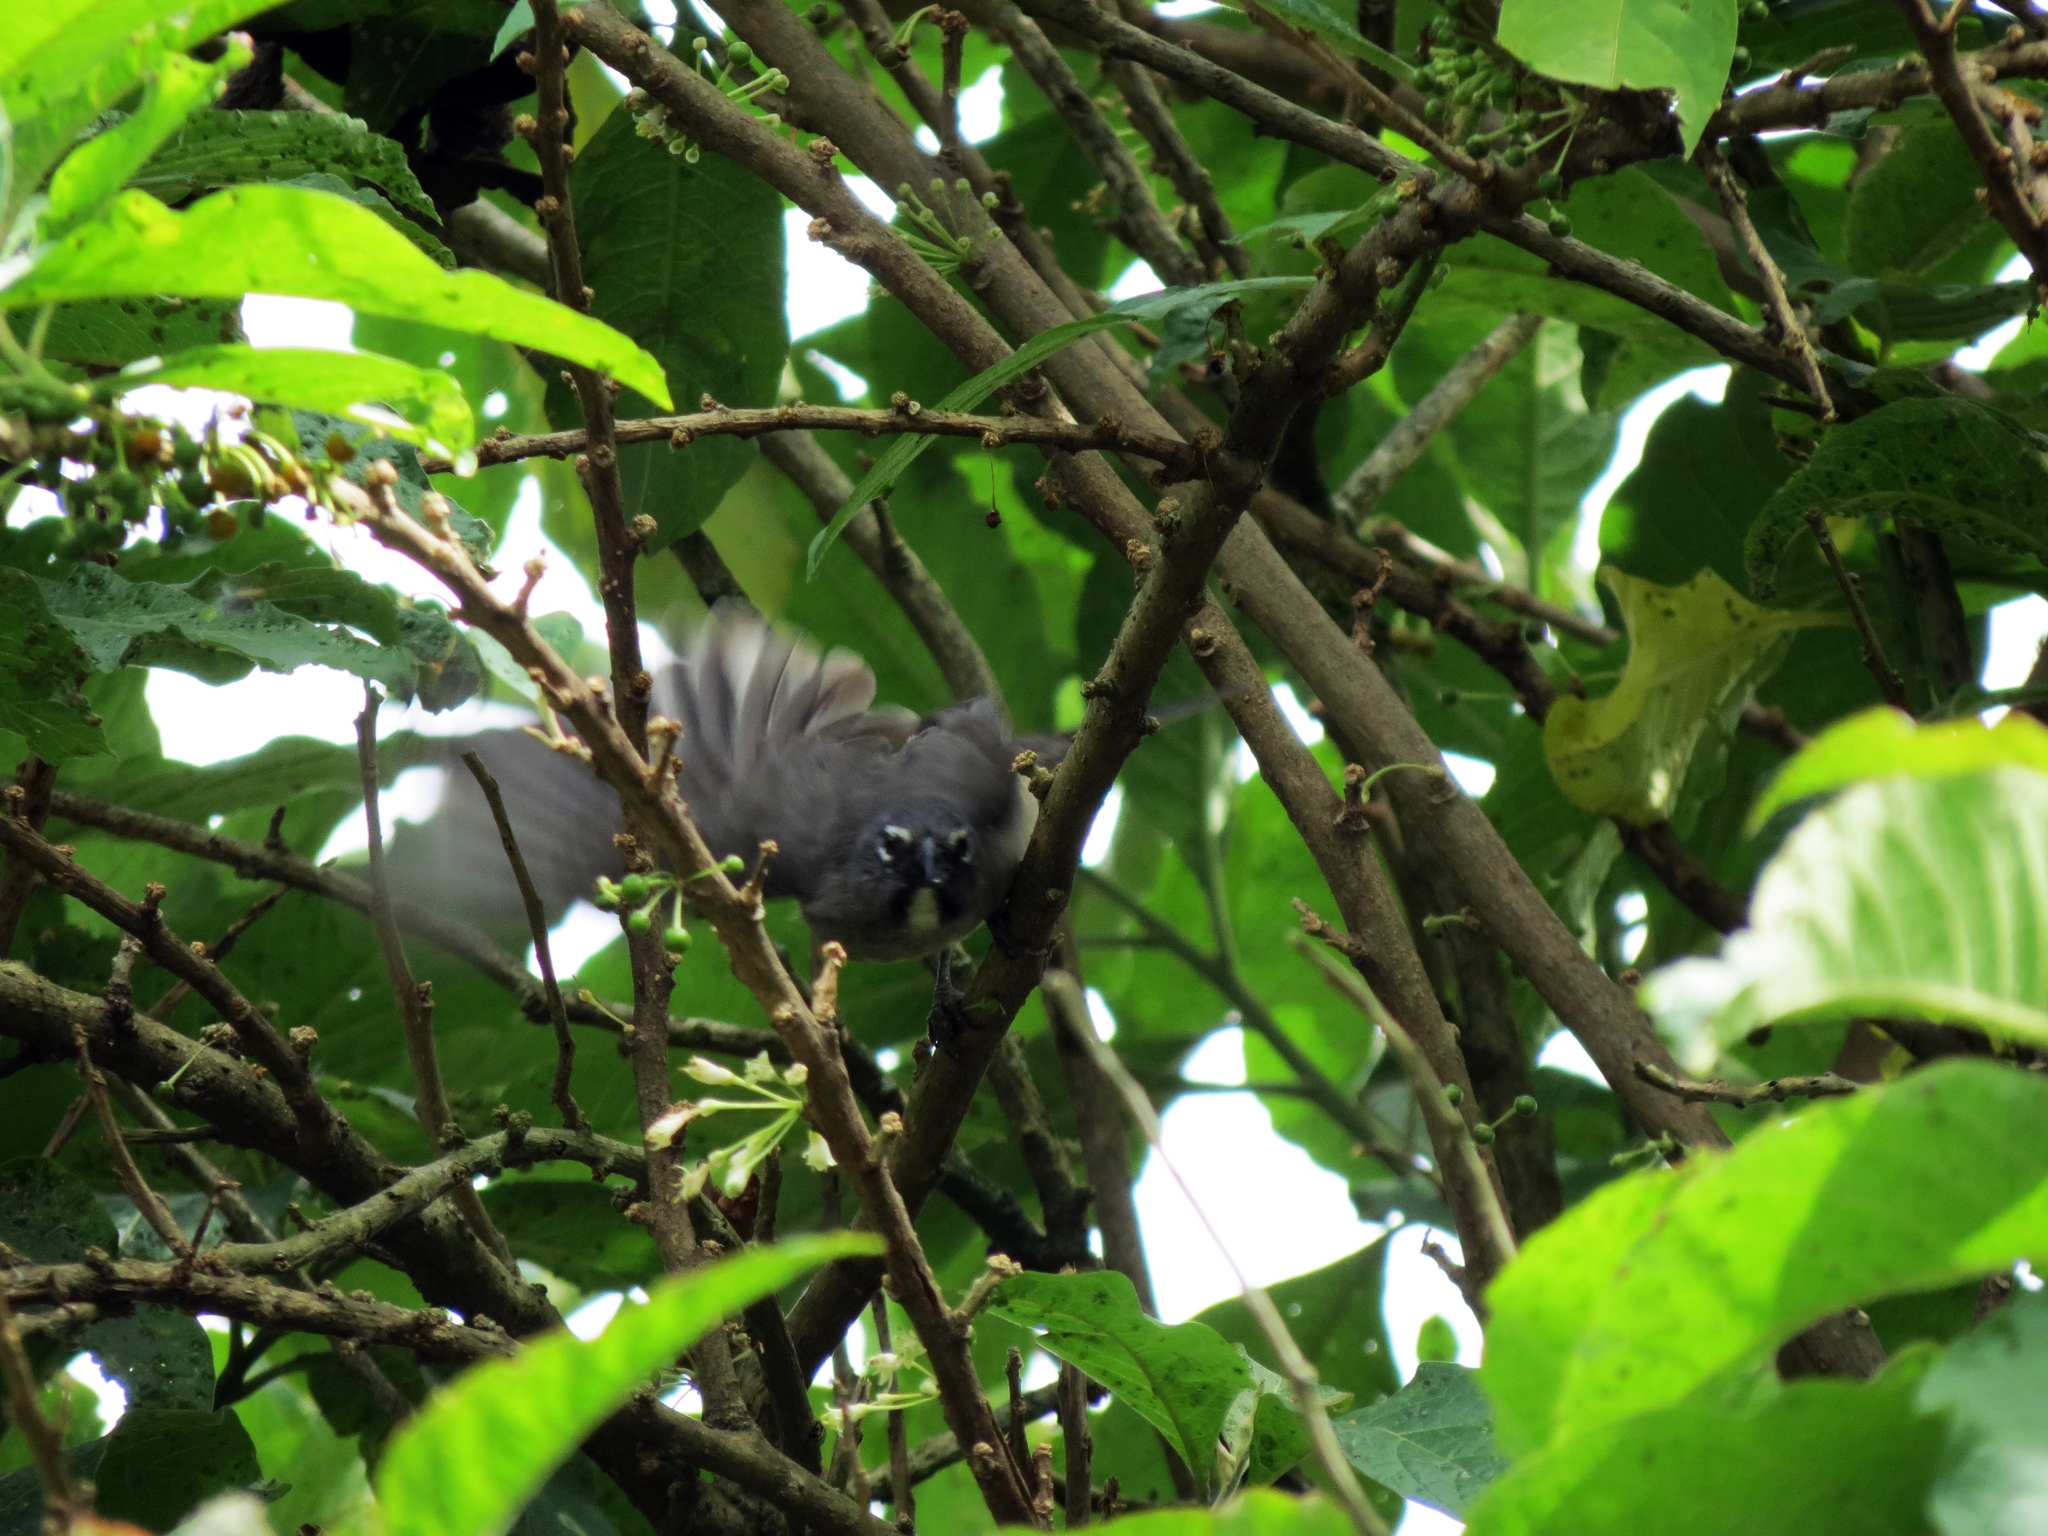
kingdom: Animalia
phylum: Chordata
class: Aves
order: Passeriformes
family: Thraupidae
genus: Saltator
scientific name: Saltator olivascens
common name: Caribbean grey saltator
